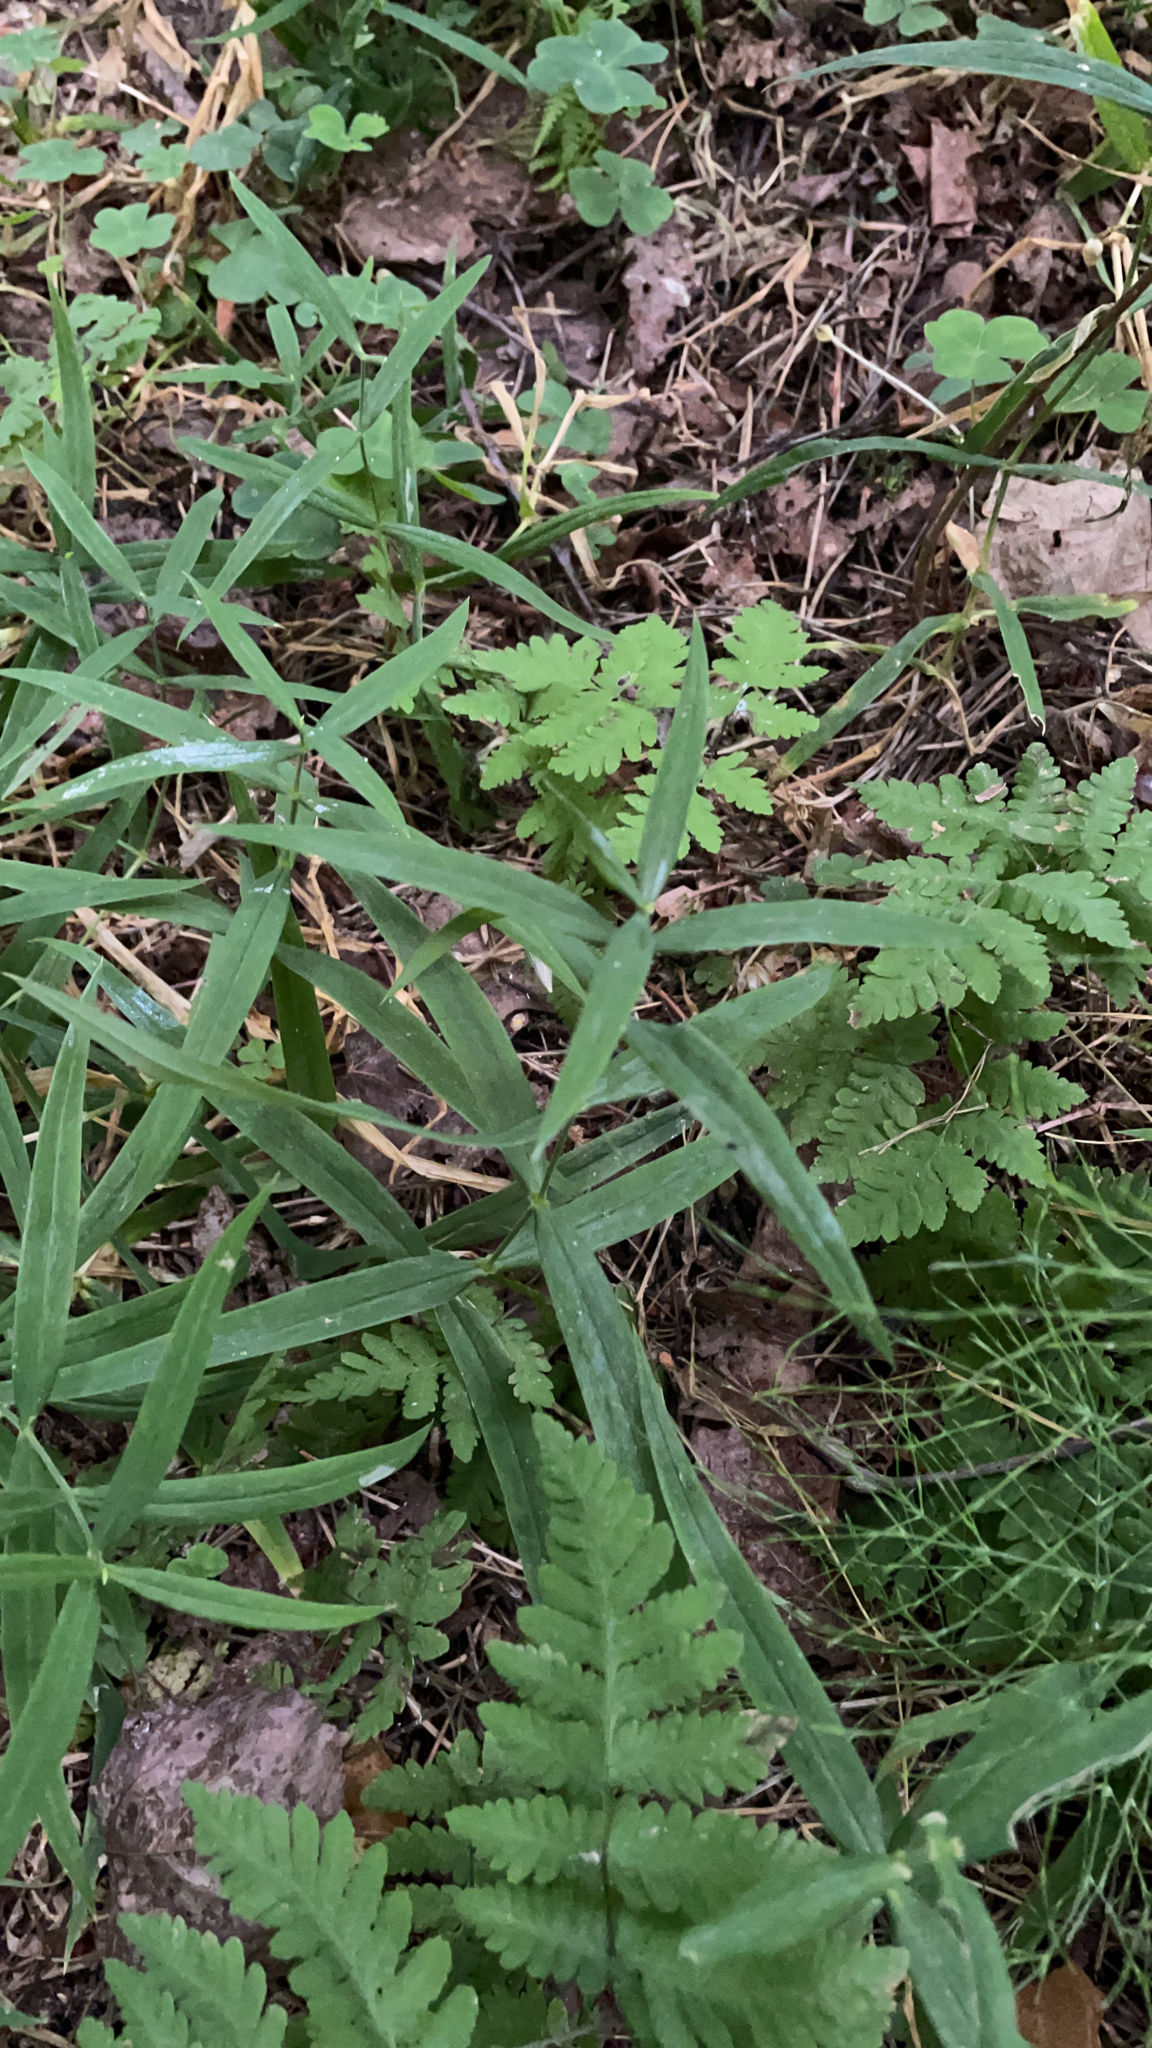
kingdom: Plantae
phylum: Tracheophyta
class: Magnoliopsida
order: Caryophyllales
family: Caryophyllaceae
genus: Rabelera
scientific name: Rabelera holostea
